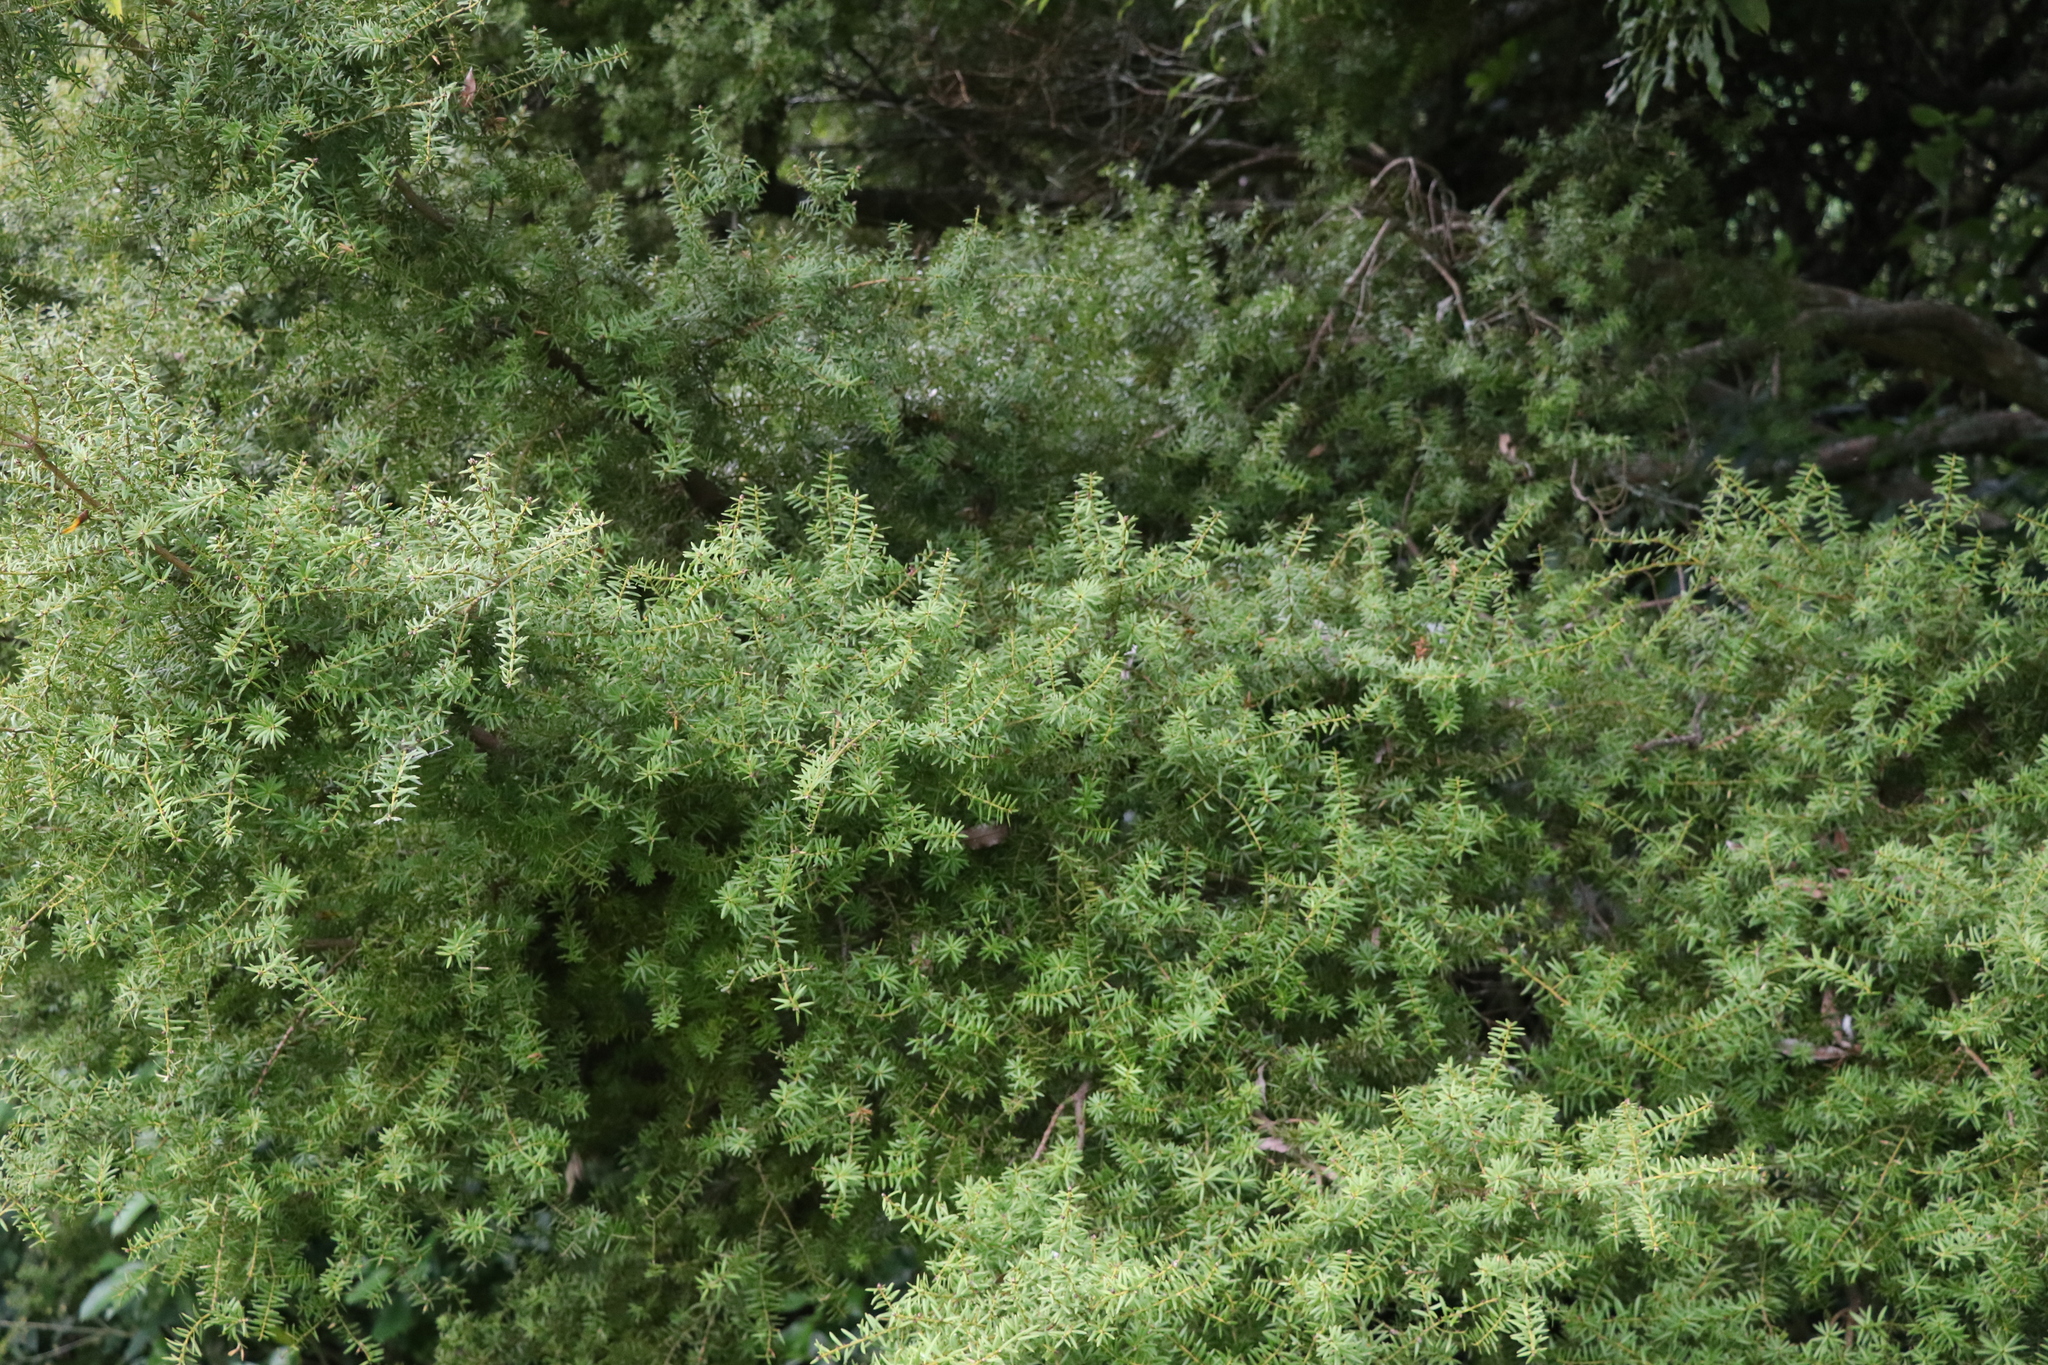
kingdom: Plantae
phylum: Tracheophyta
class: Pinopsida
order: Pinales
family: Podocarpaceae
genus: Podocarpus
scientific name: Podocarpus totara
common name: Totara
